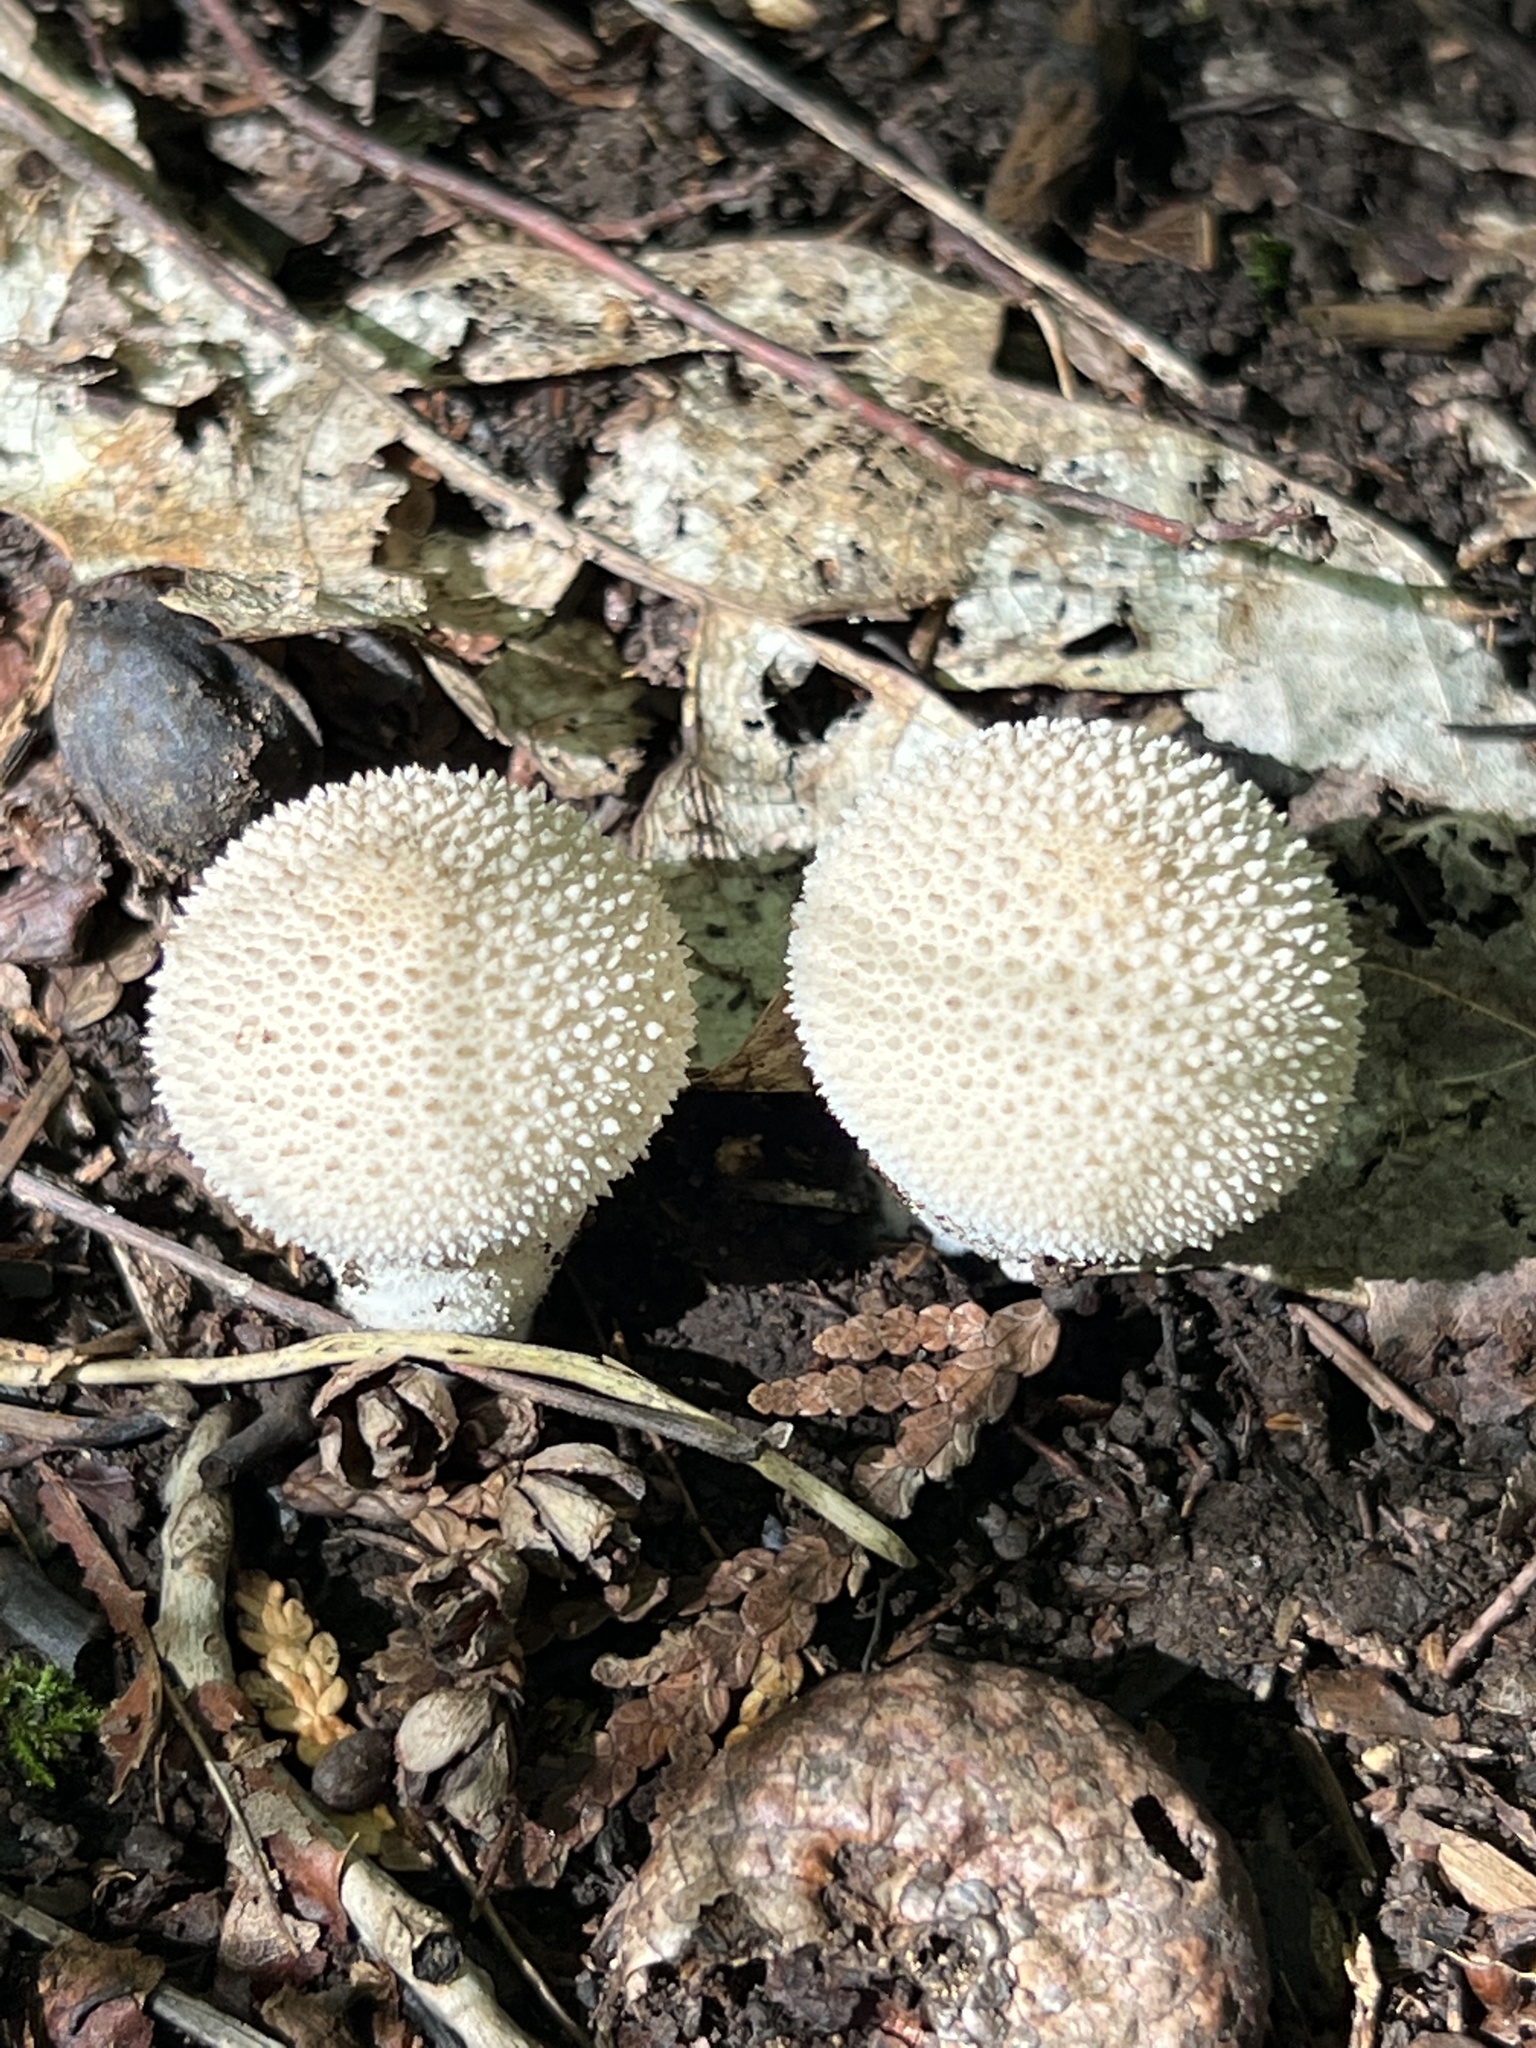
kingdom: Fungi
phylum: Basidiomycota
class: Agaricomycetes
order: Agaricales
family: Lycoperdaceae
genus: Lycoperdon
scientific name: Lycoperdon perlatum
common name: Common puffball
